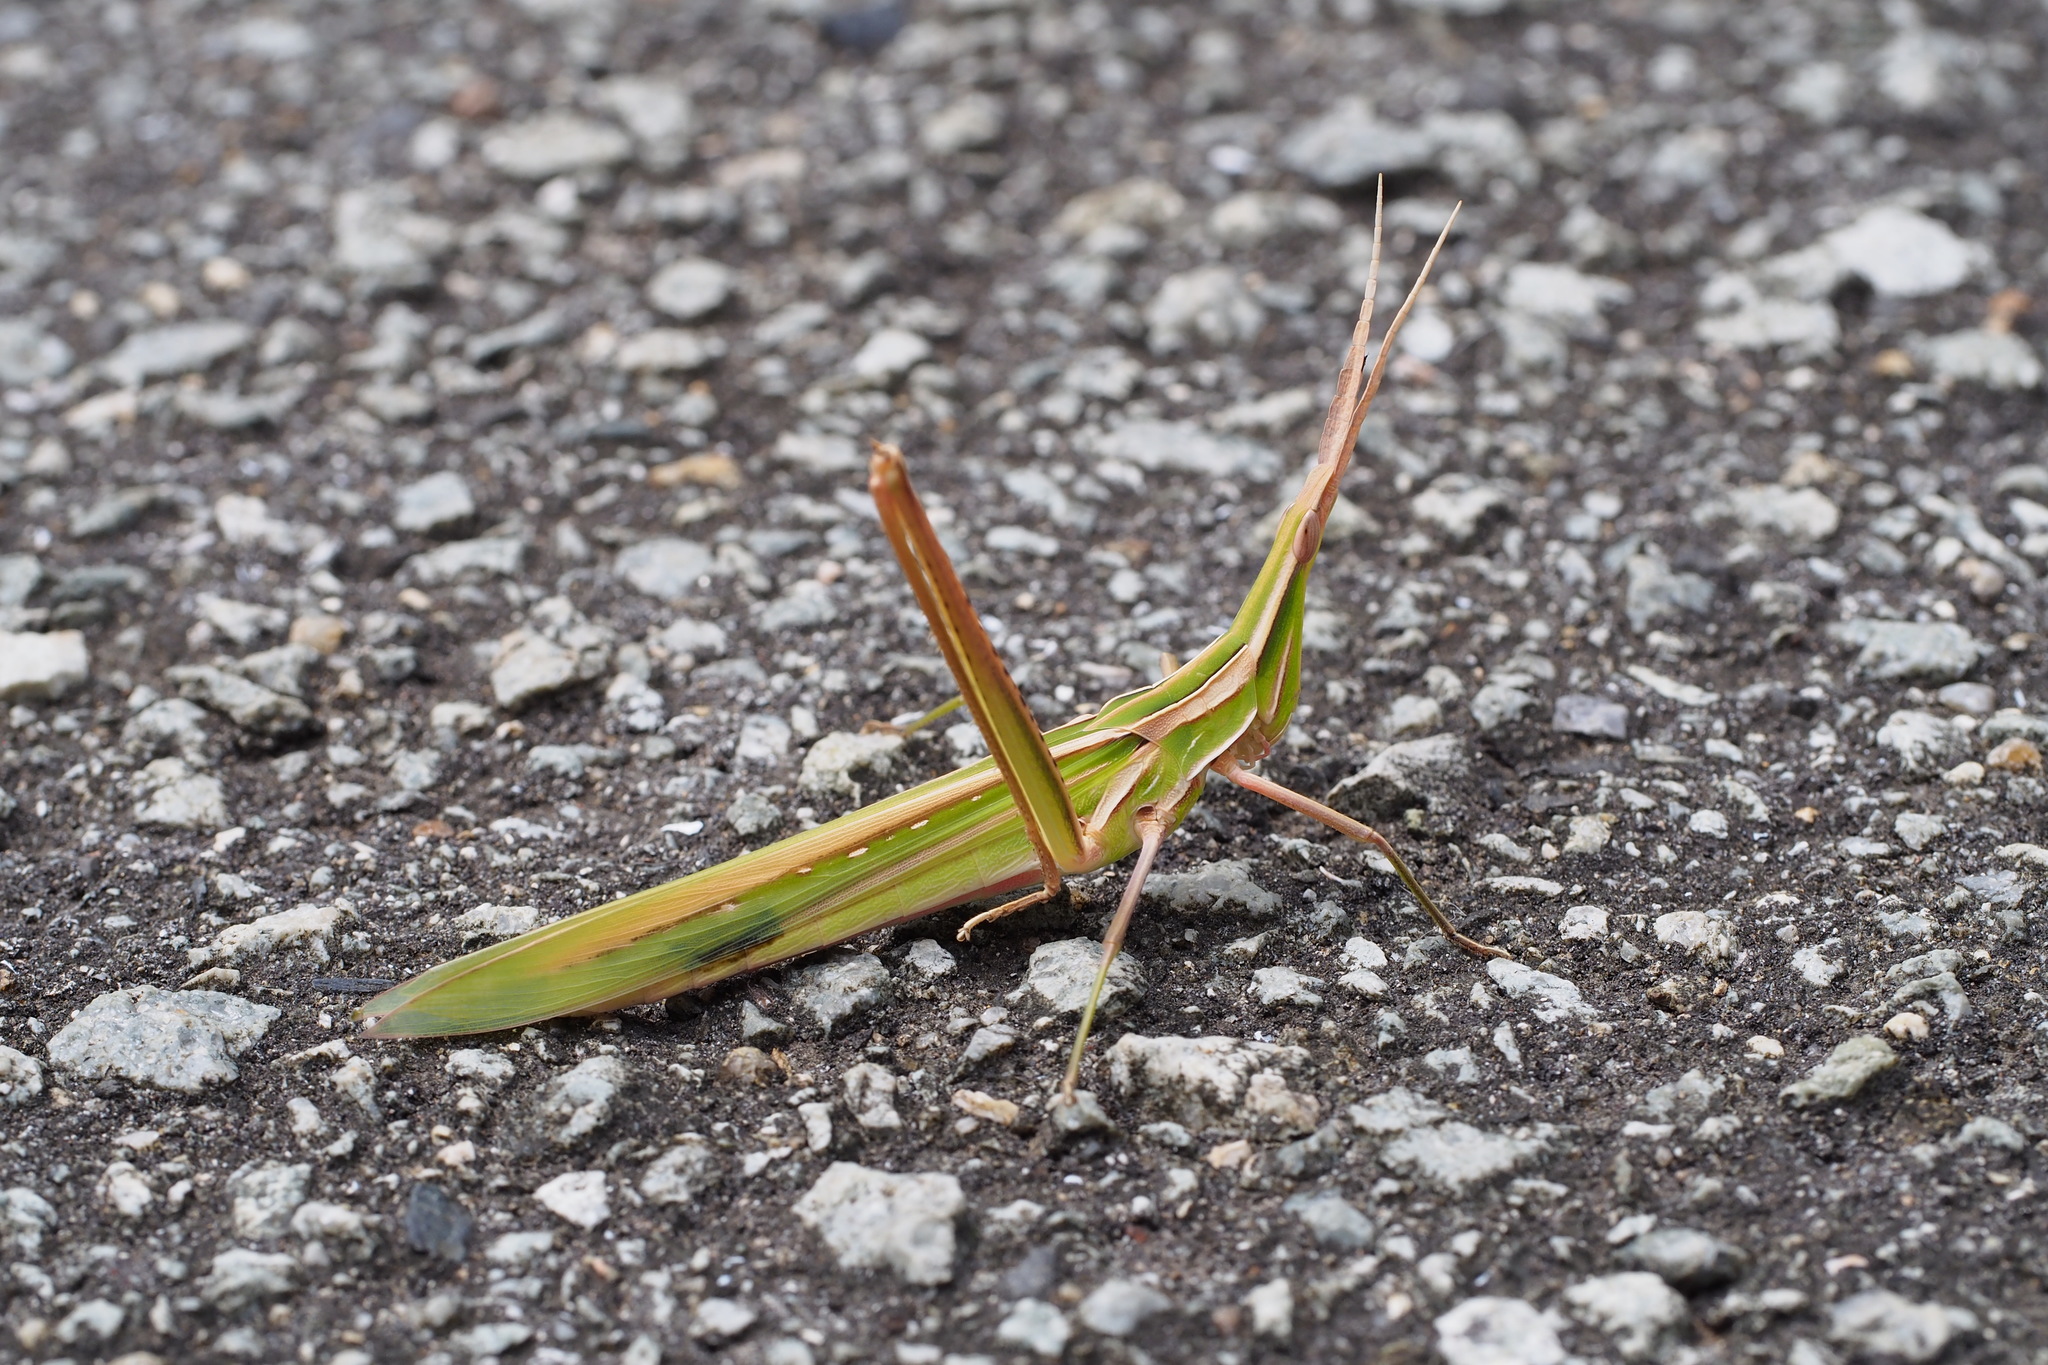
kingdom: Animalia
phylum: Arthropoda
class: Insecta
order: Orthoptera
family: Acrididae
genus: Acrida
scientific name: Acrida cinerea
